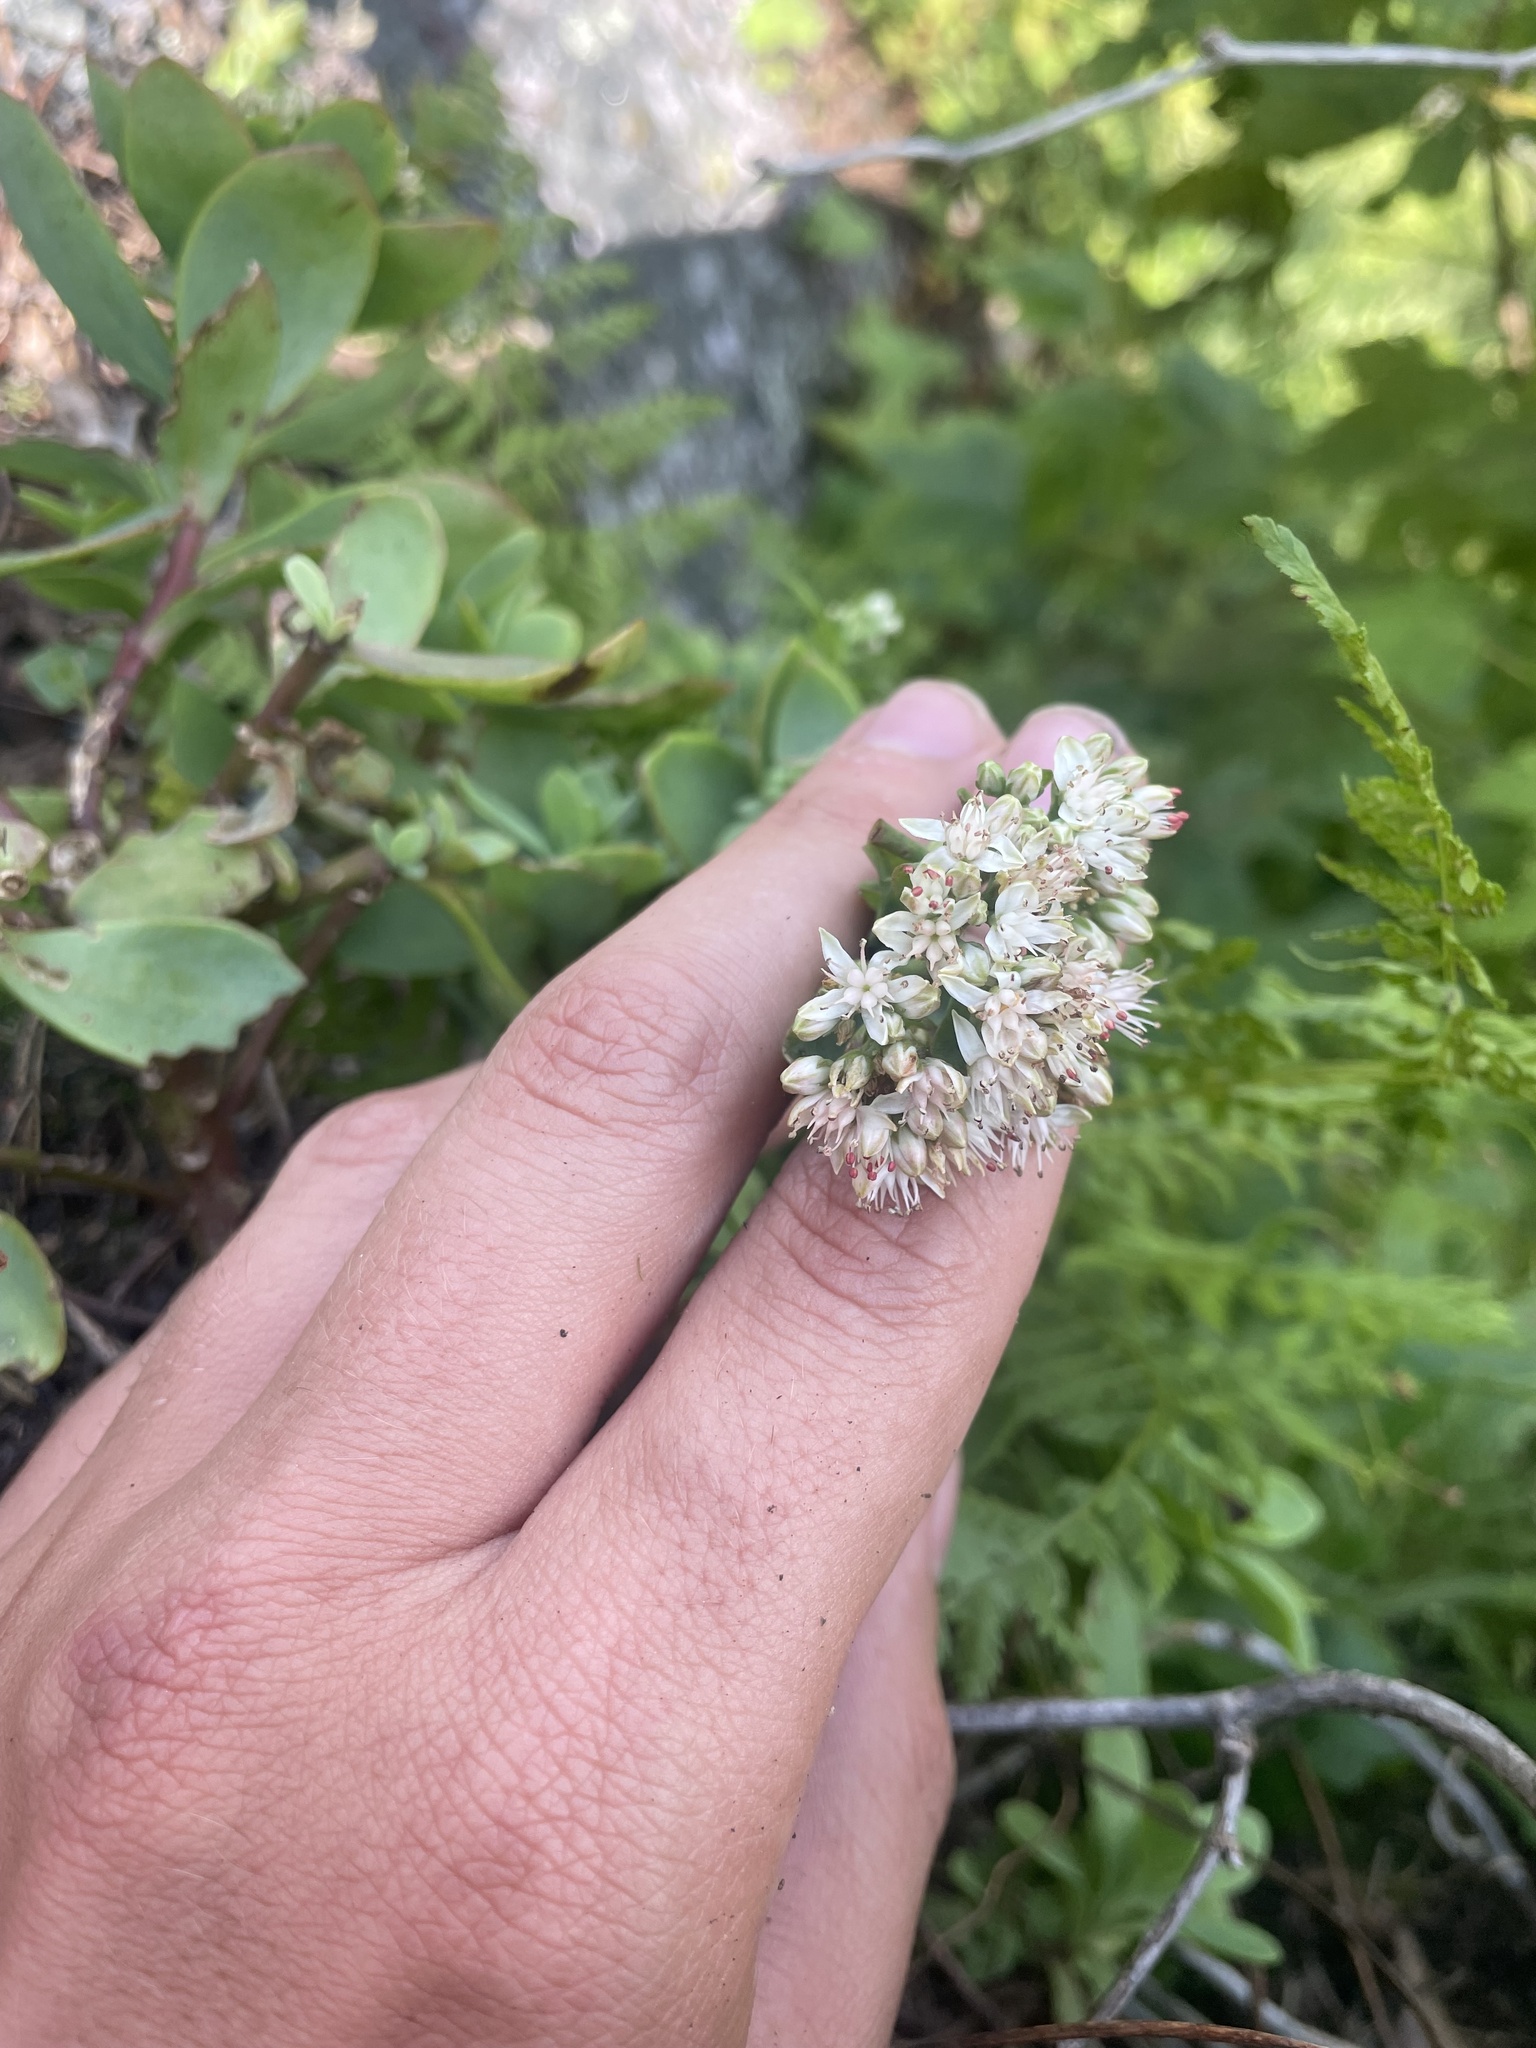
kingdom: Plantae
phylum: Tracheophyta
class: Magnoliopsida
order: Saxifragales
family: Crassulaceae
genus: Hylotelephium
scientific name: Hylotelephium telephioides
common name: Allegheny stonecrop
